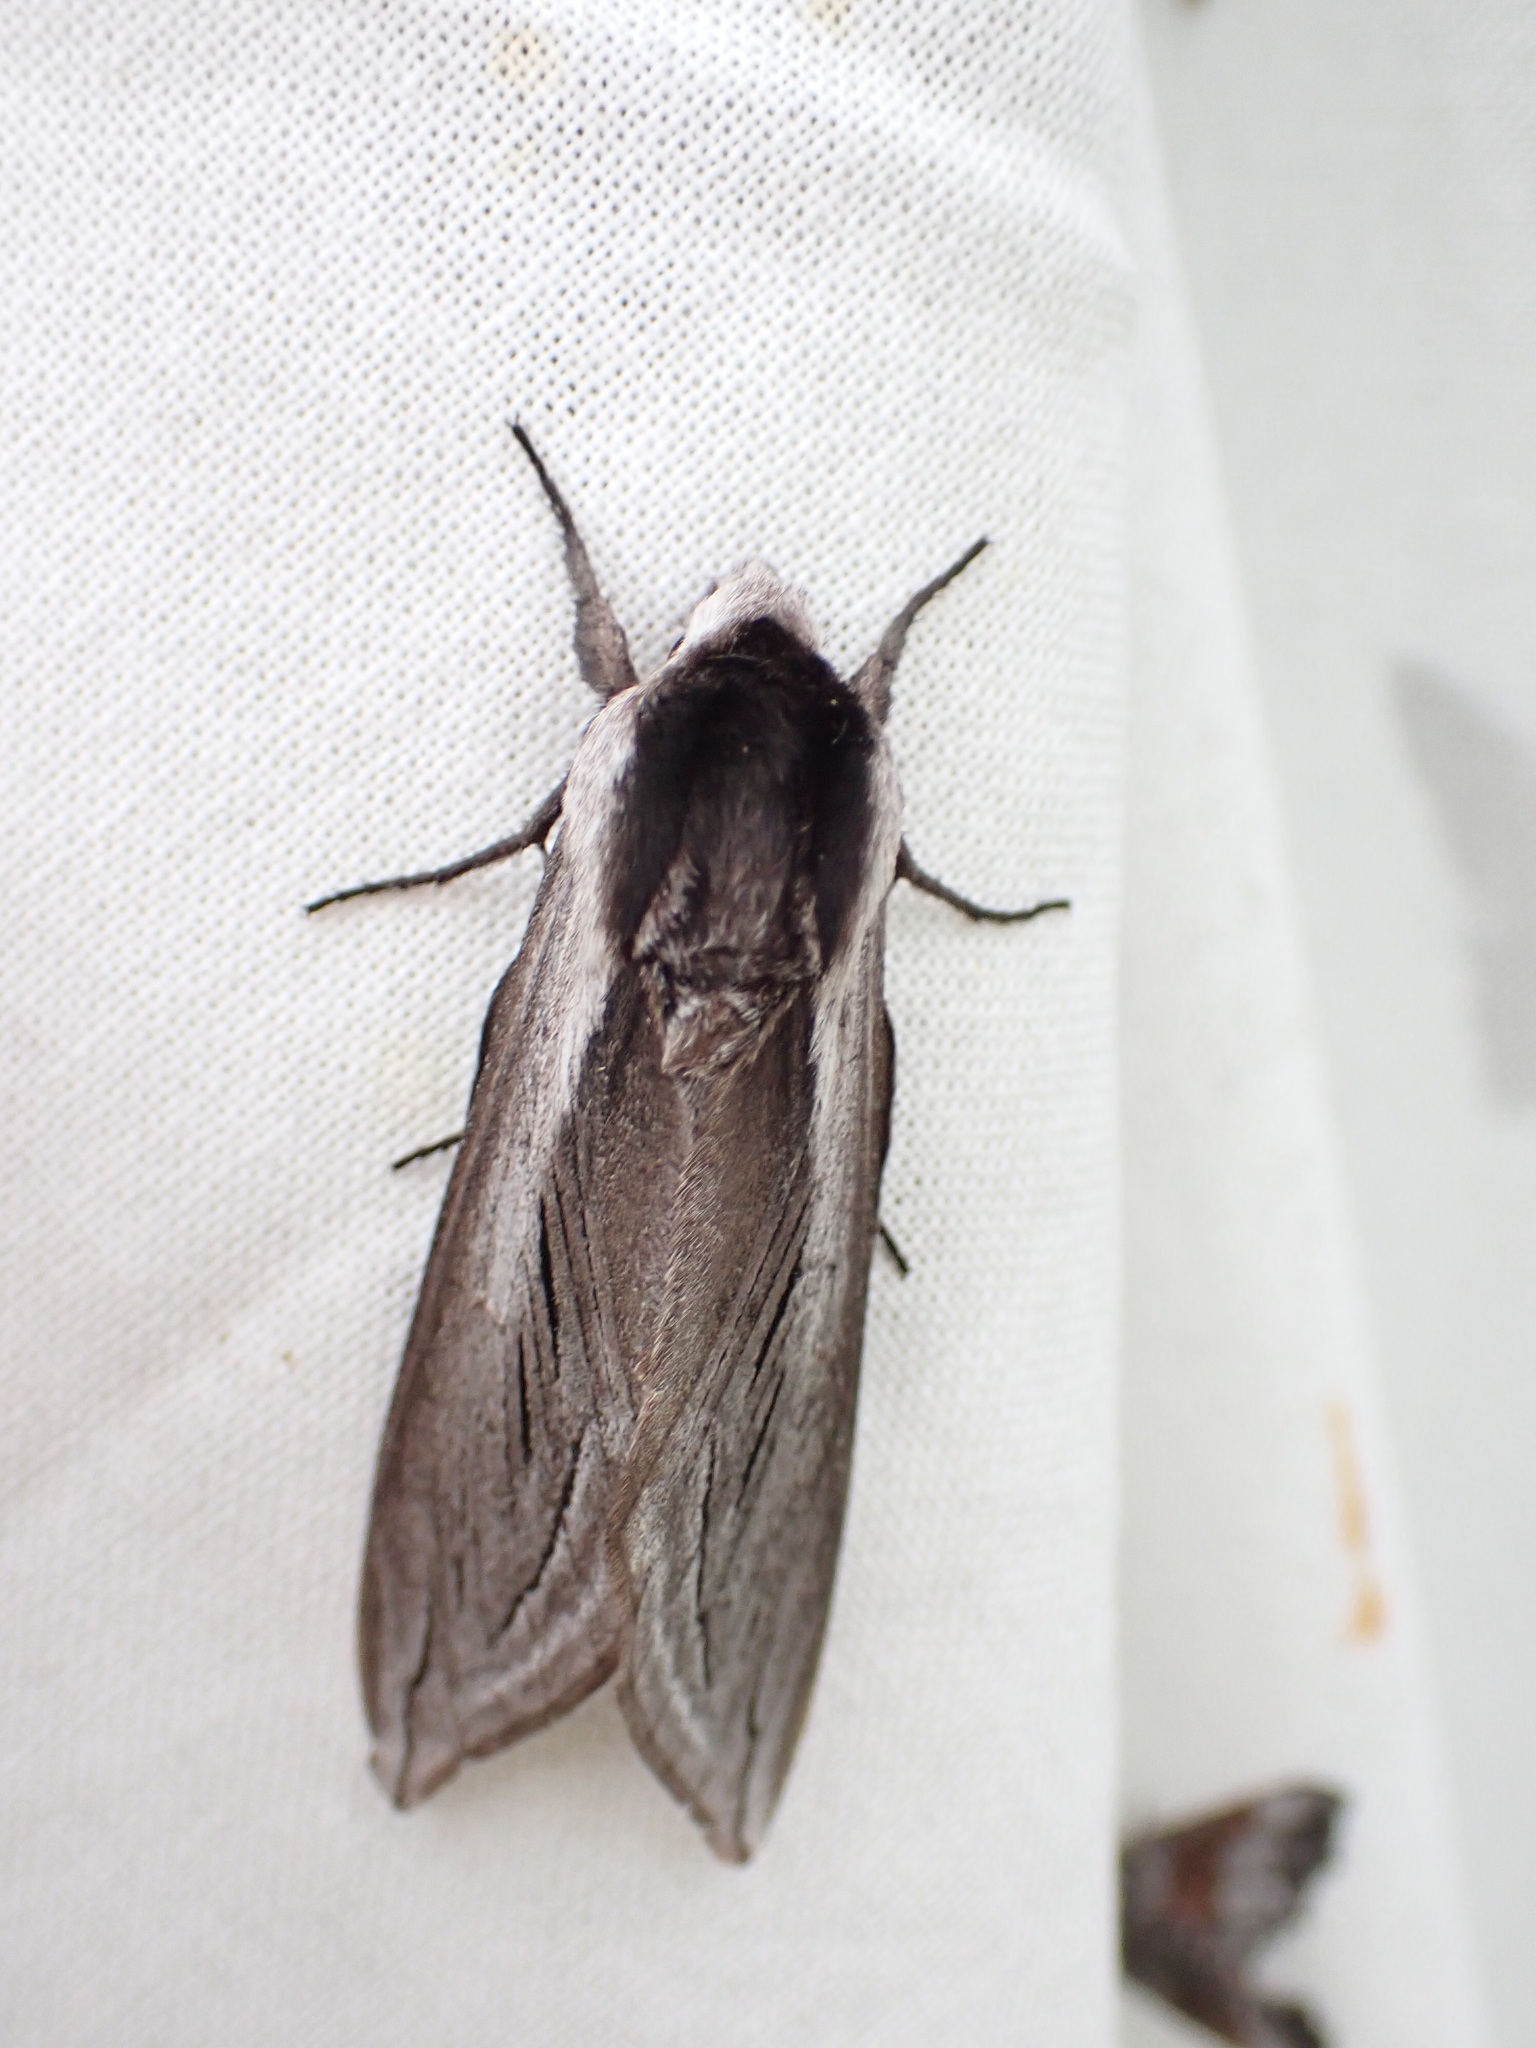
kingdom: Animalia
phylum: Arthropoda
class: Insecta
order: Lepidoptera
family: Sphingidae
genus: Sphinx
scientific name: Sphinx vashti
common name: Snowberry sphinx
